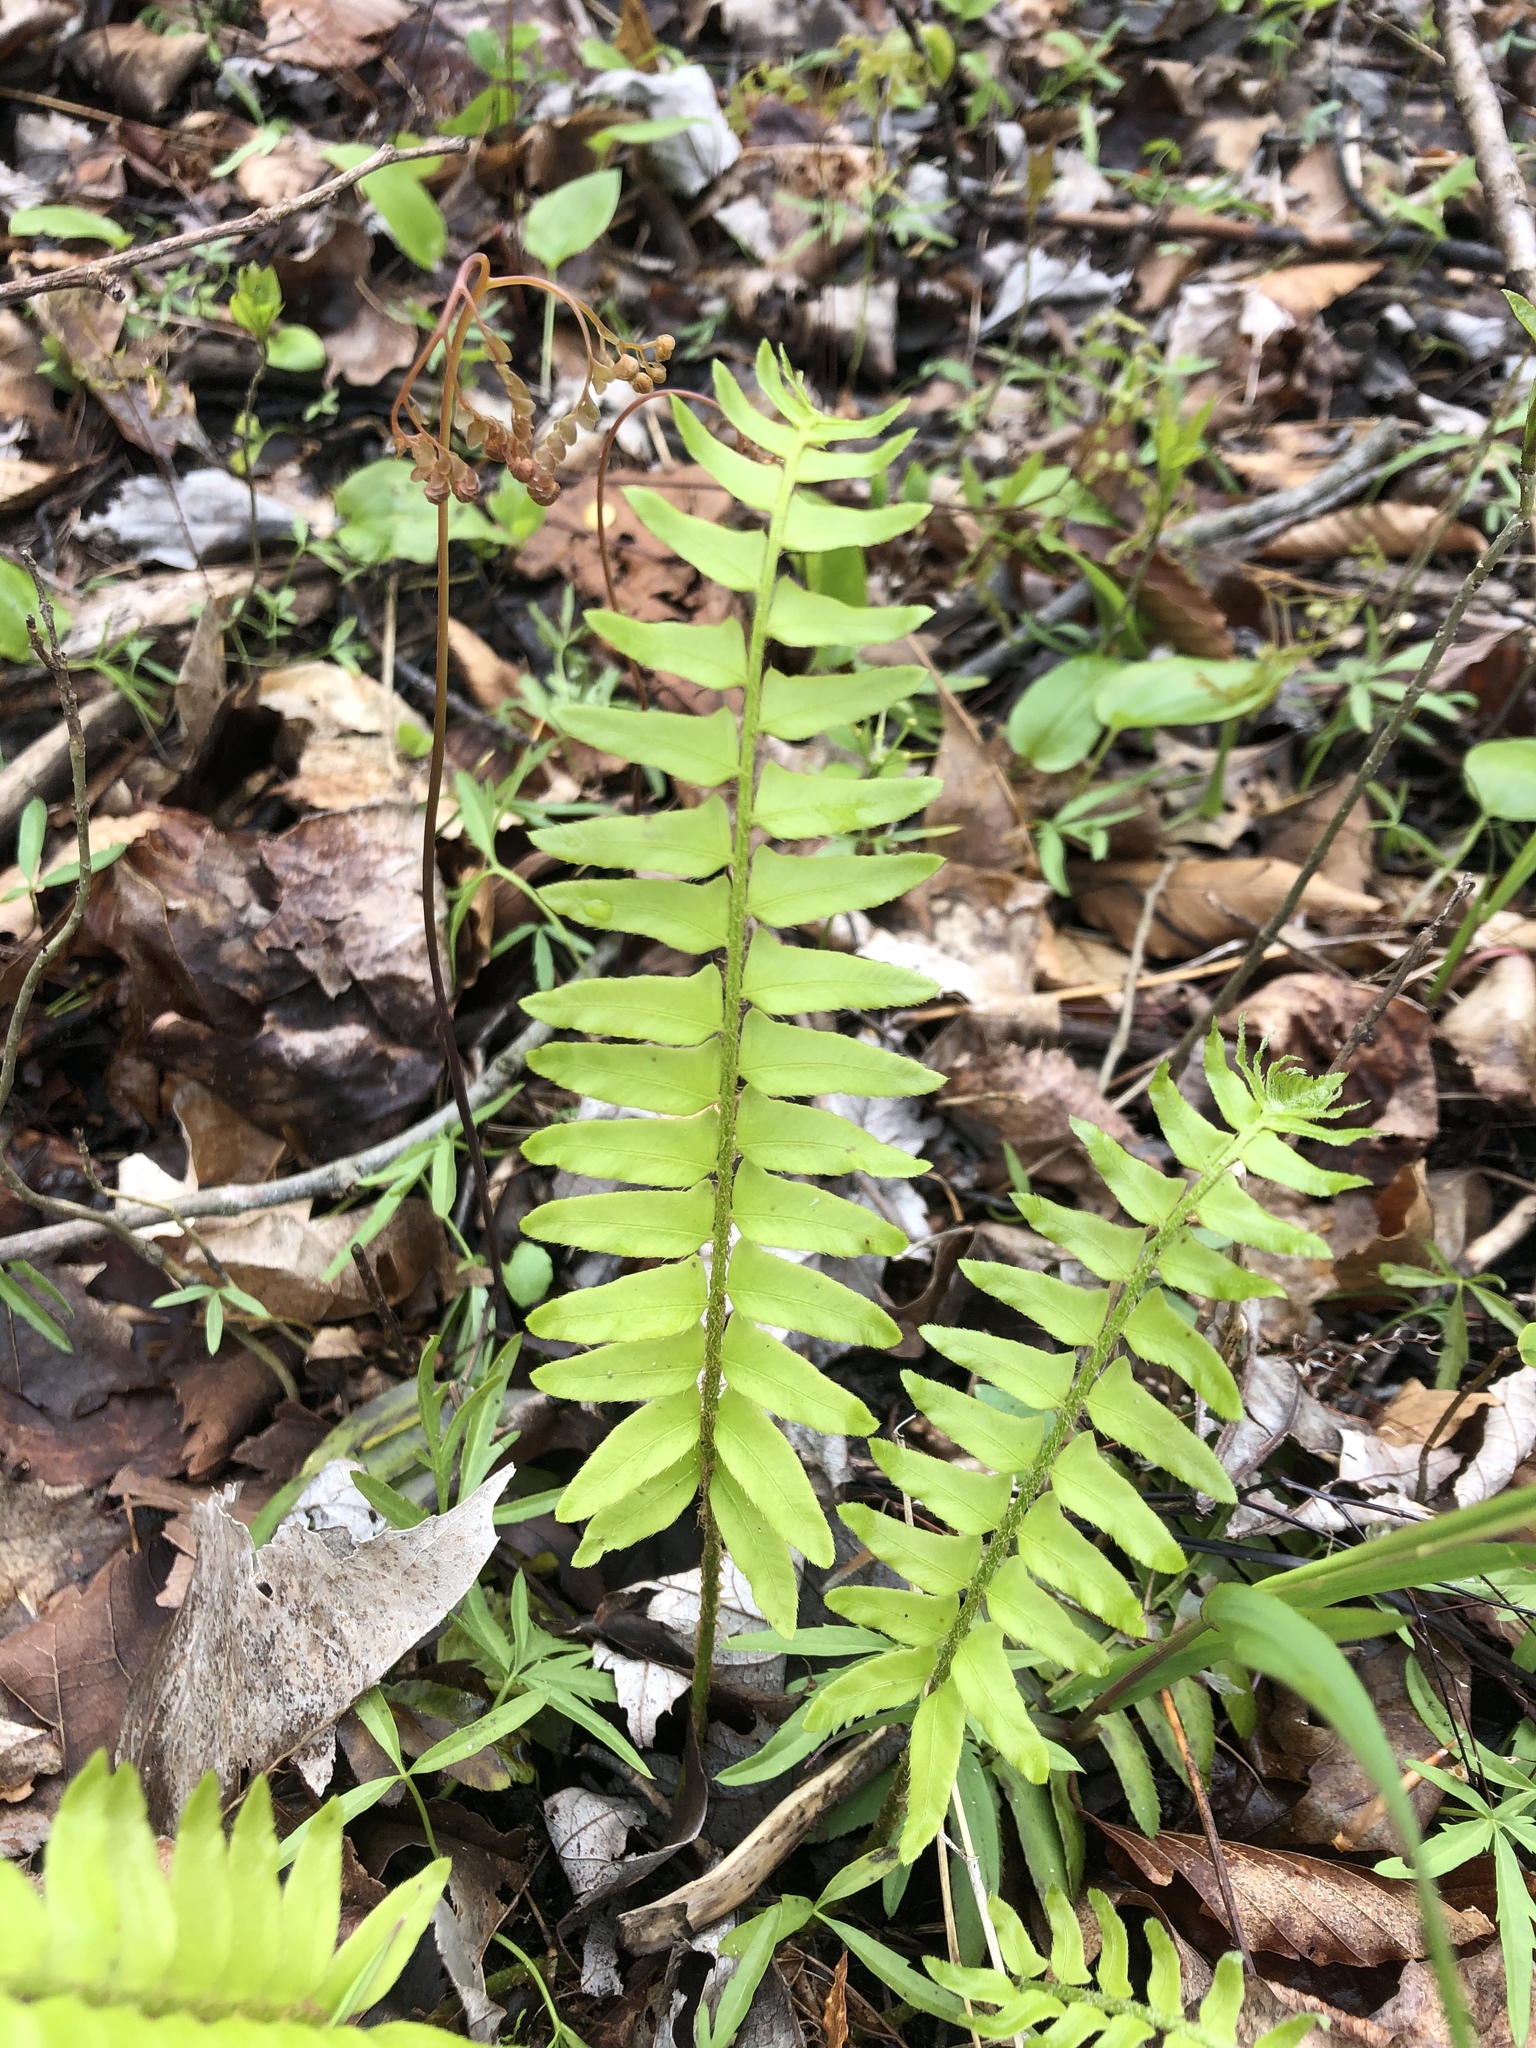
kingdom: Plantae
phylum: Tracheophyta
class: Polypodiopsida
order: Polypodiales
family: Dryopteridaceae
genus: Polystichum
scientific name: Polystichum acrostichoides
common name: Christmas fern
